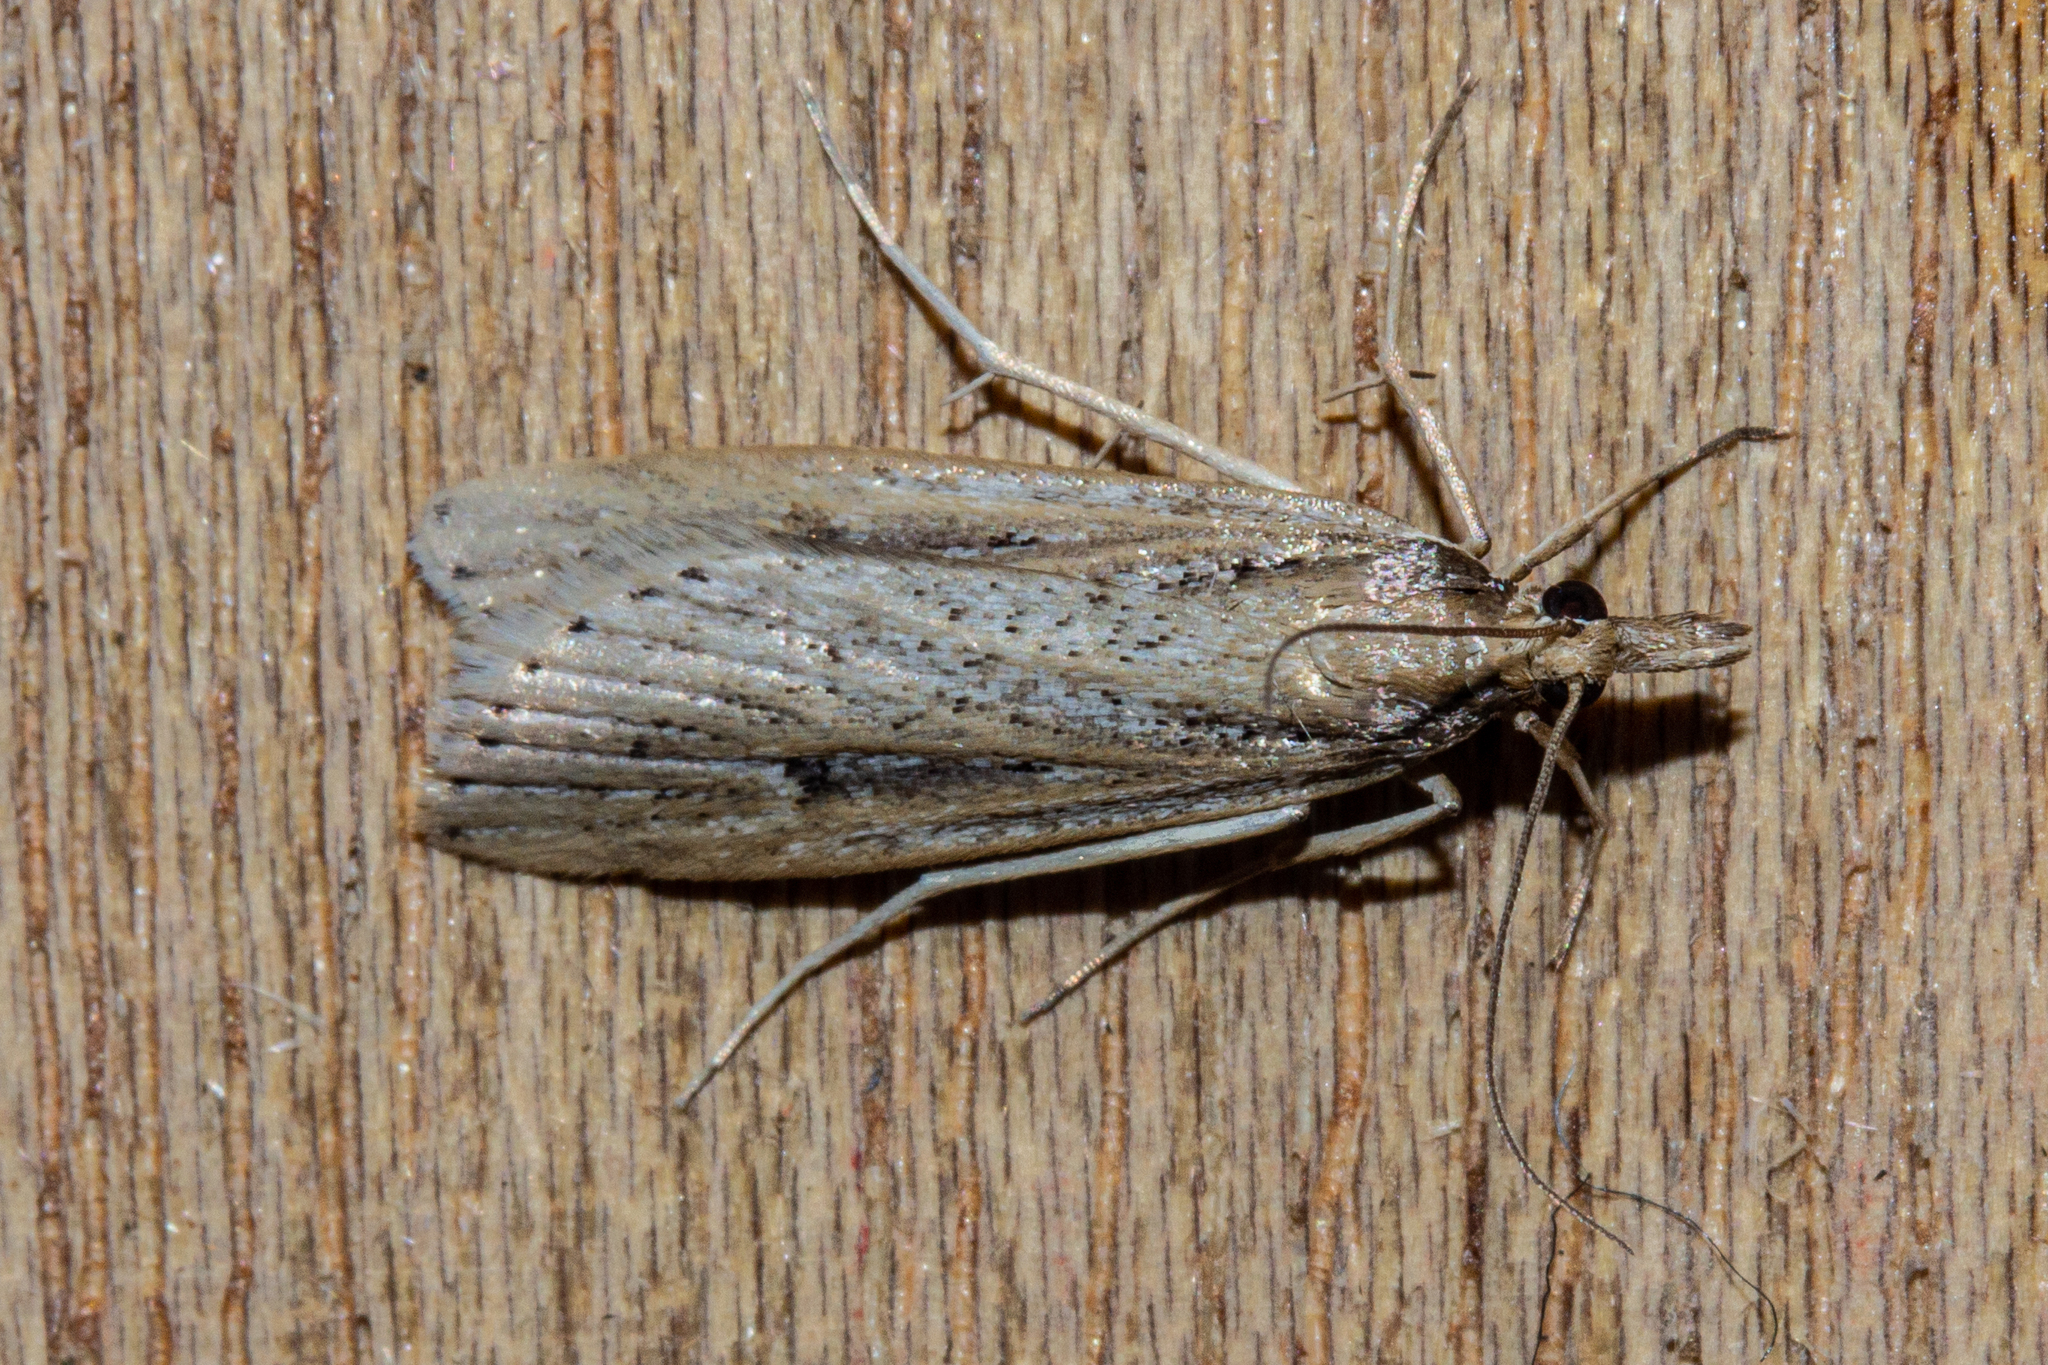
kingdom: Animalia
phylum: Arthropoda
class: Insecta
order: Lepidoptera
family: Crambidae
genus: Eudonia
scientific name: Eudonia sabulosella
